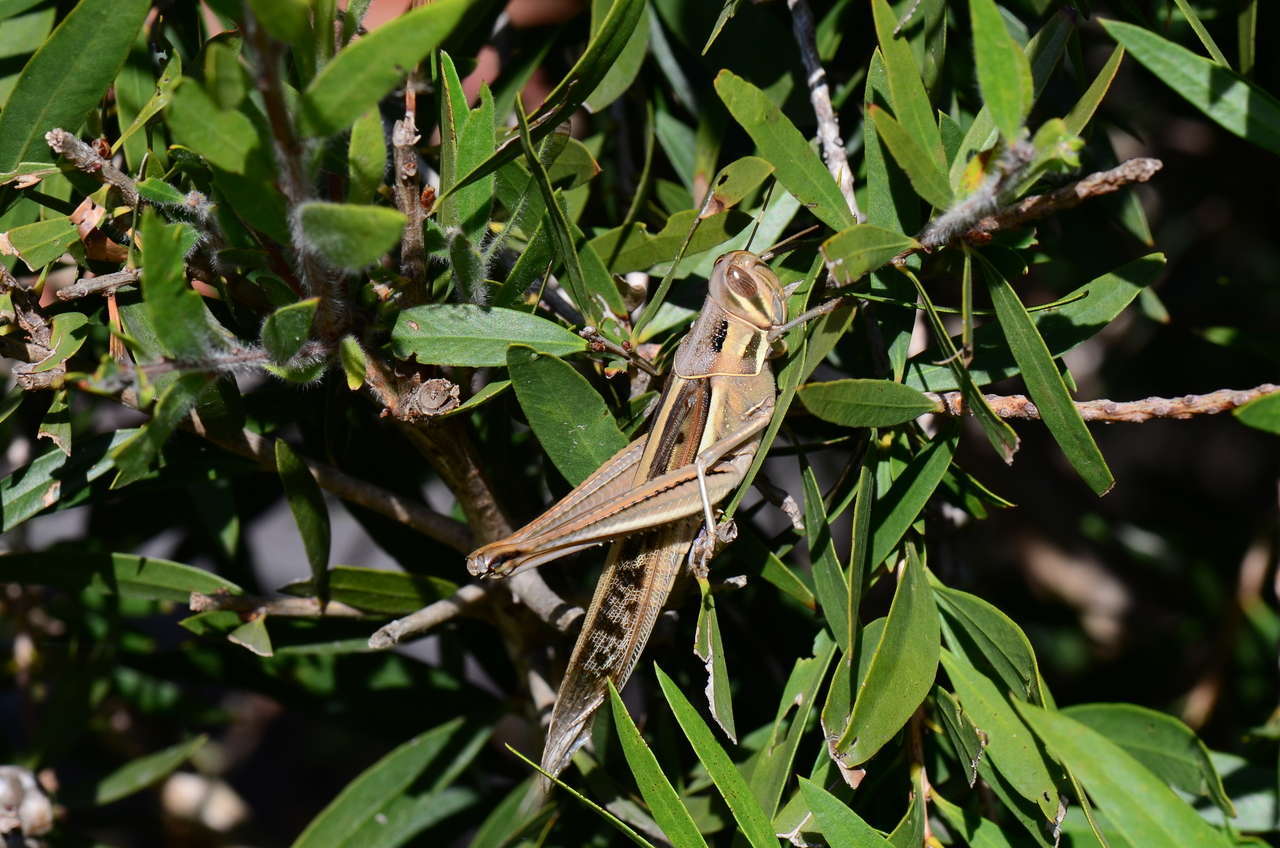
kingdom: Animalia
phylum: Arthropoda
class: Insecta
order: Orthoptera
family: Acrididae
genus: Austracris
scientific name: Austracris guttulosa
